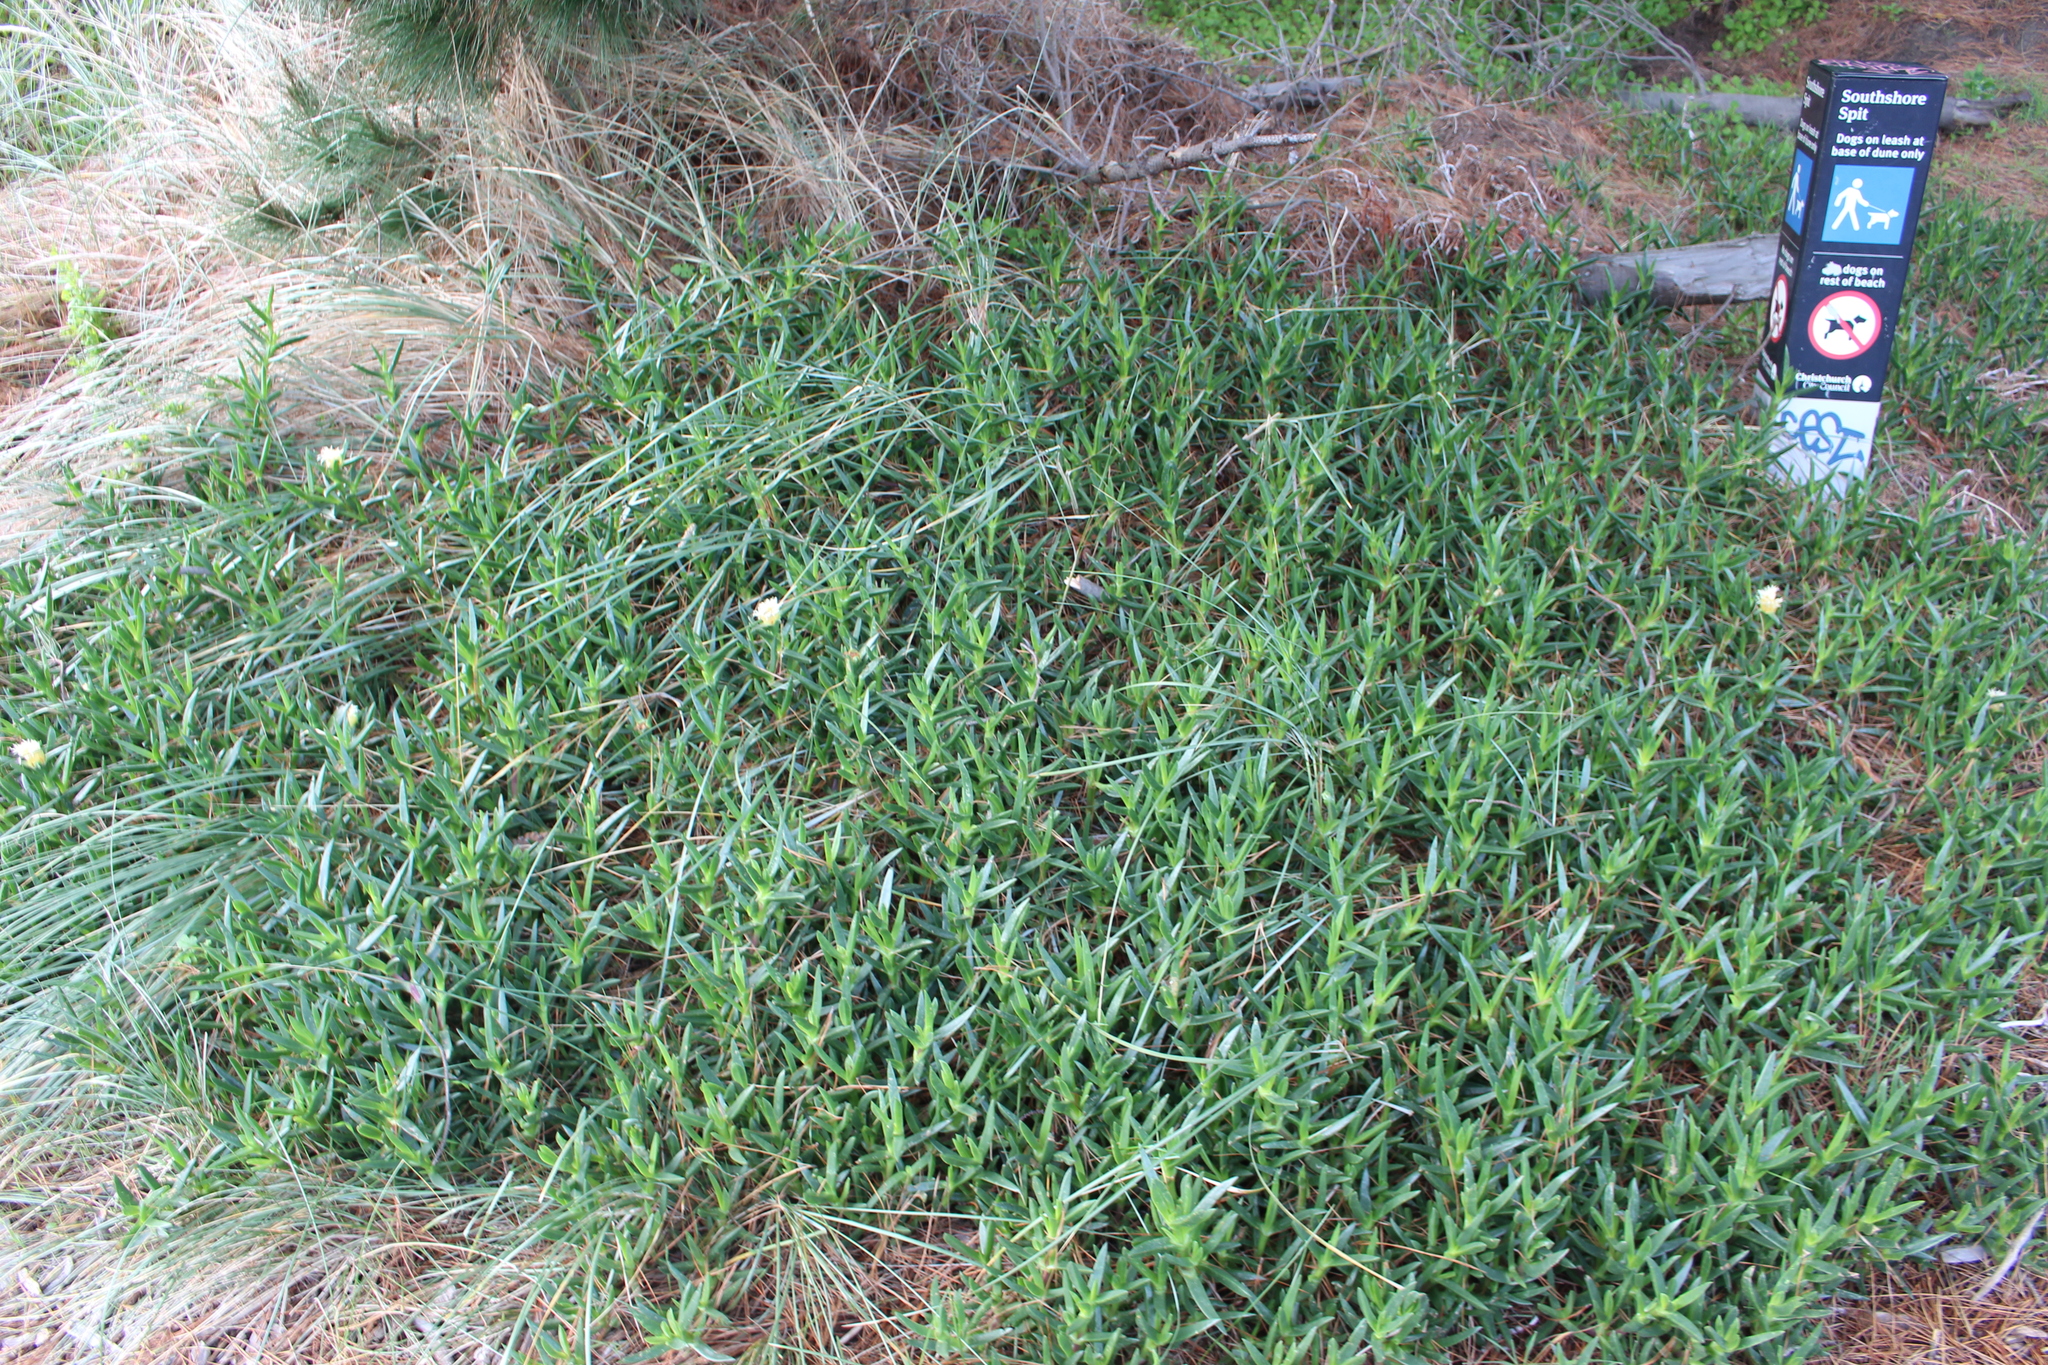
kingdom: Plantae
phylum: Tracheophyta
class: Magnoliopsida
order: Caryophyllales
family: Aizoaceae
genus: Carpobrotus
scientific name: Carpobrotus edulis
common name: Hottentot-fig
